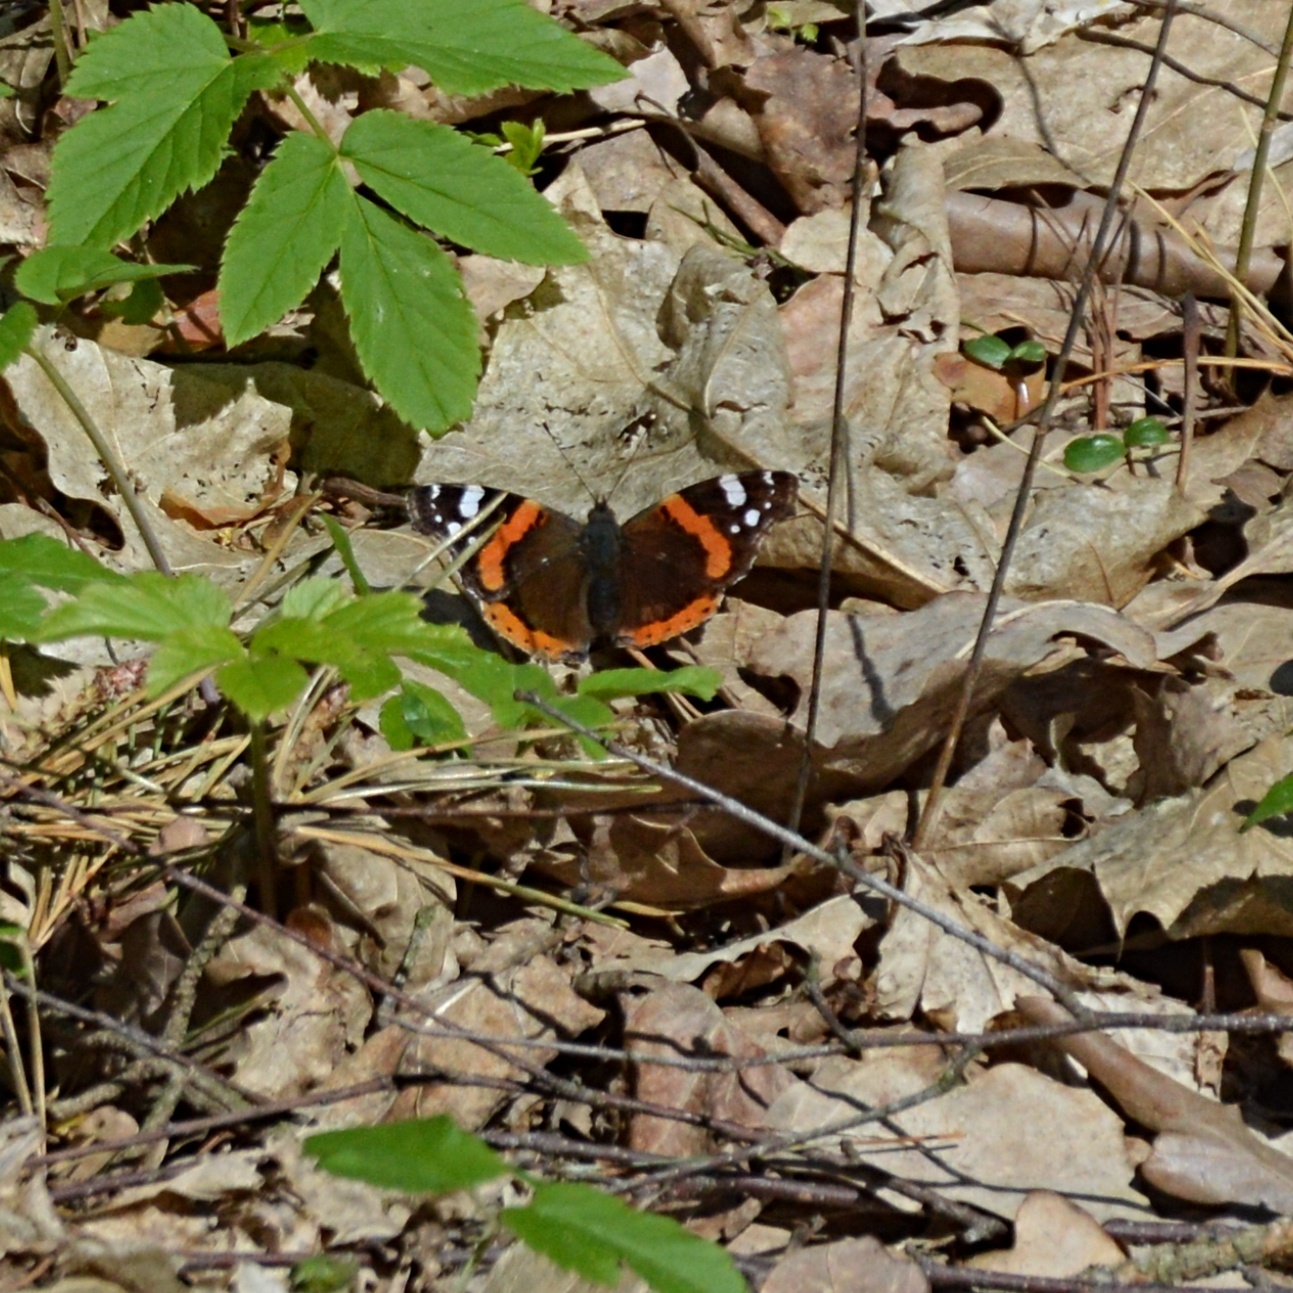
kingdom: Animalia
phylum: Arthropoda
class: Insecta
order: Lepidoptera
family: Nymphalidae
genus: Vanessa
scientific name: Vanessa atalanta
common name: Red admiral
